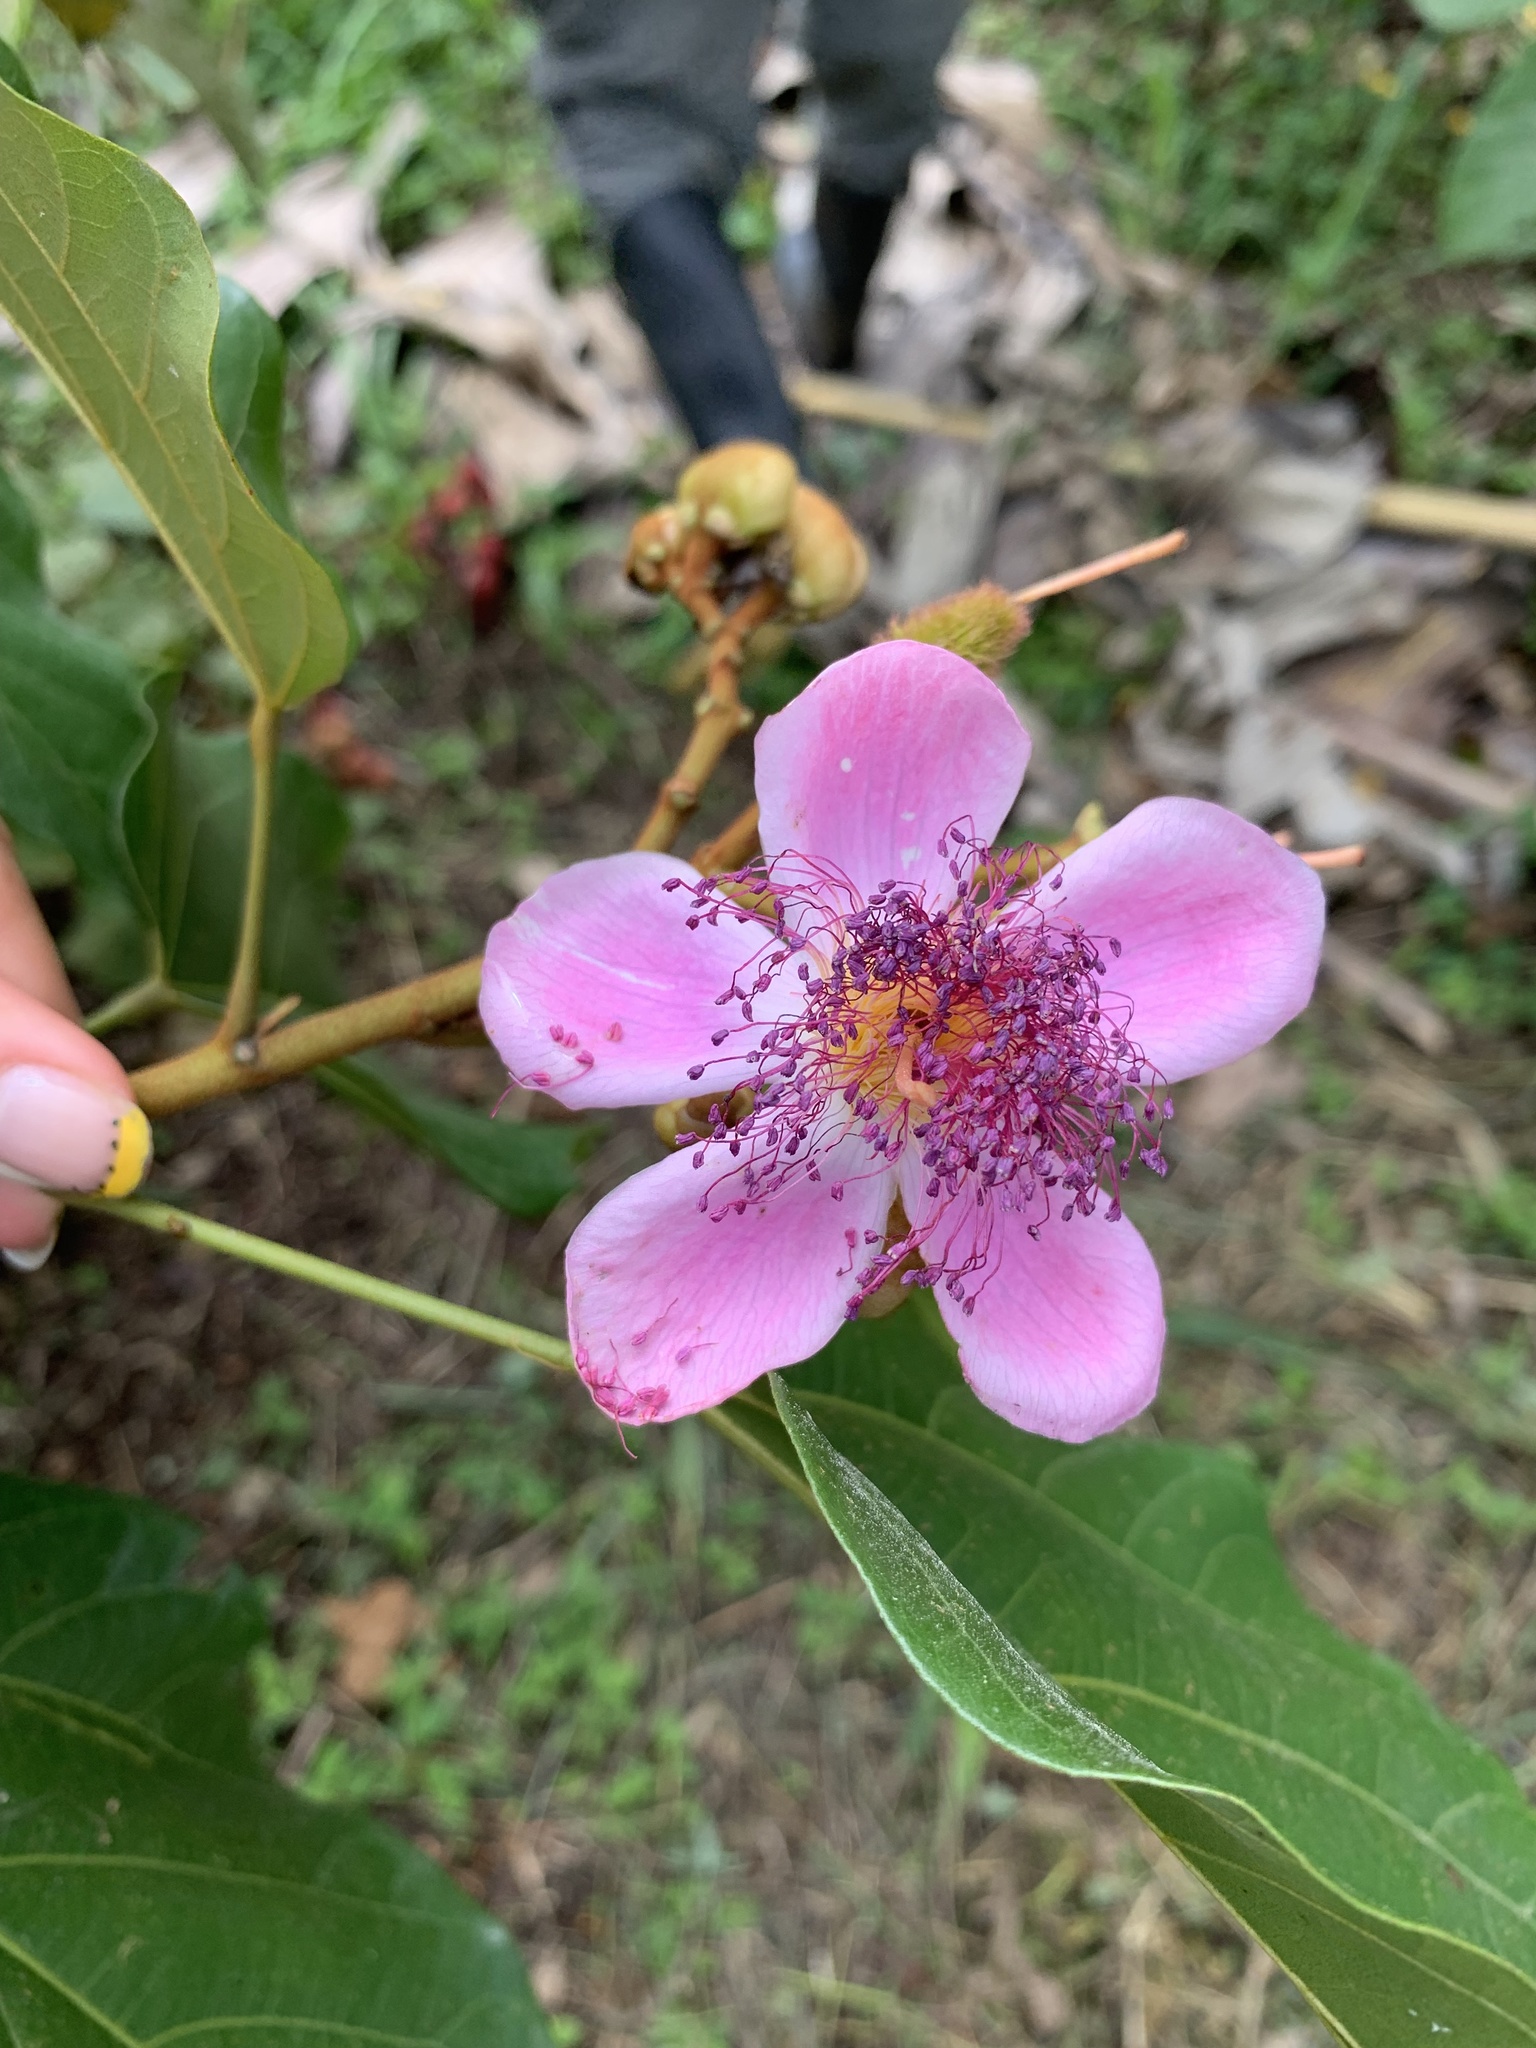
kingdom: Plantae
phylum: Tracheophyta
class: Magnoliopsida
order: Malvales
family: Bixaceae
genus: Bixa
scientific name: Bixa orellana
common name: Lipsticktree
